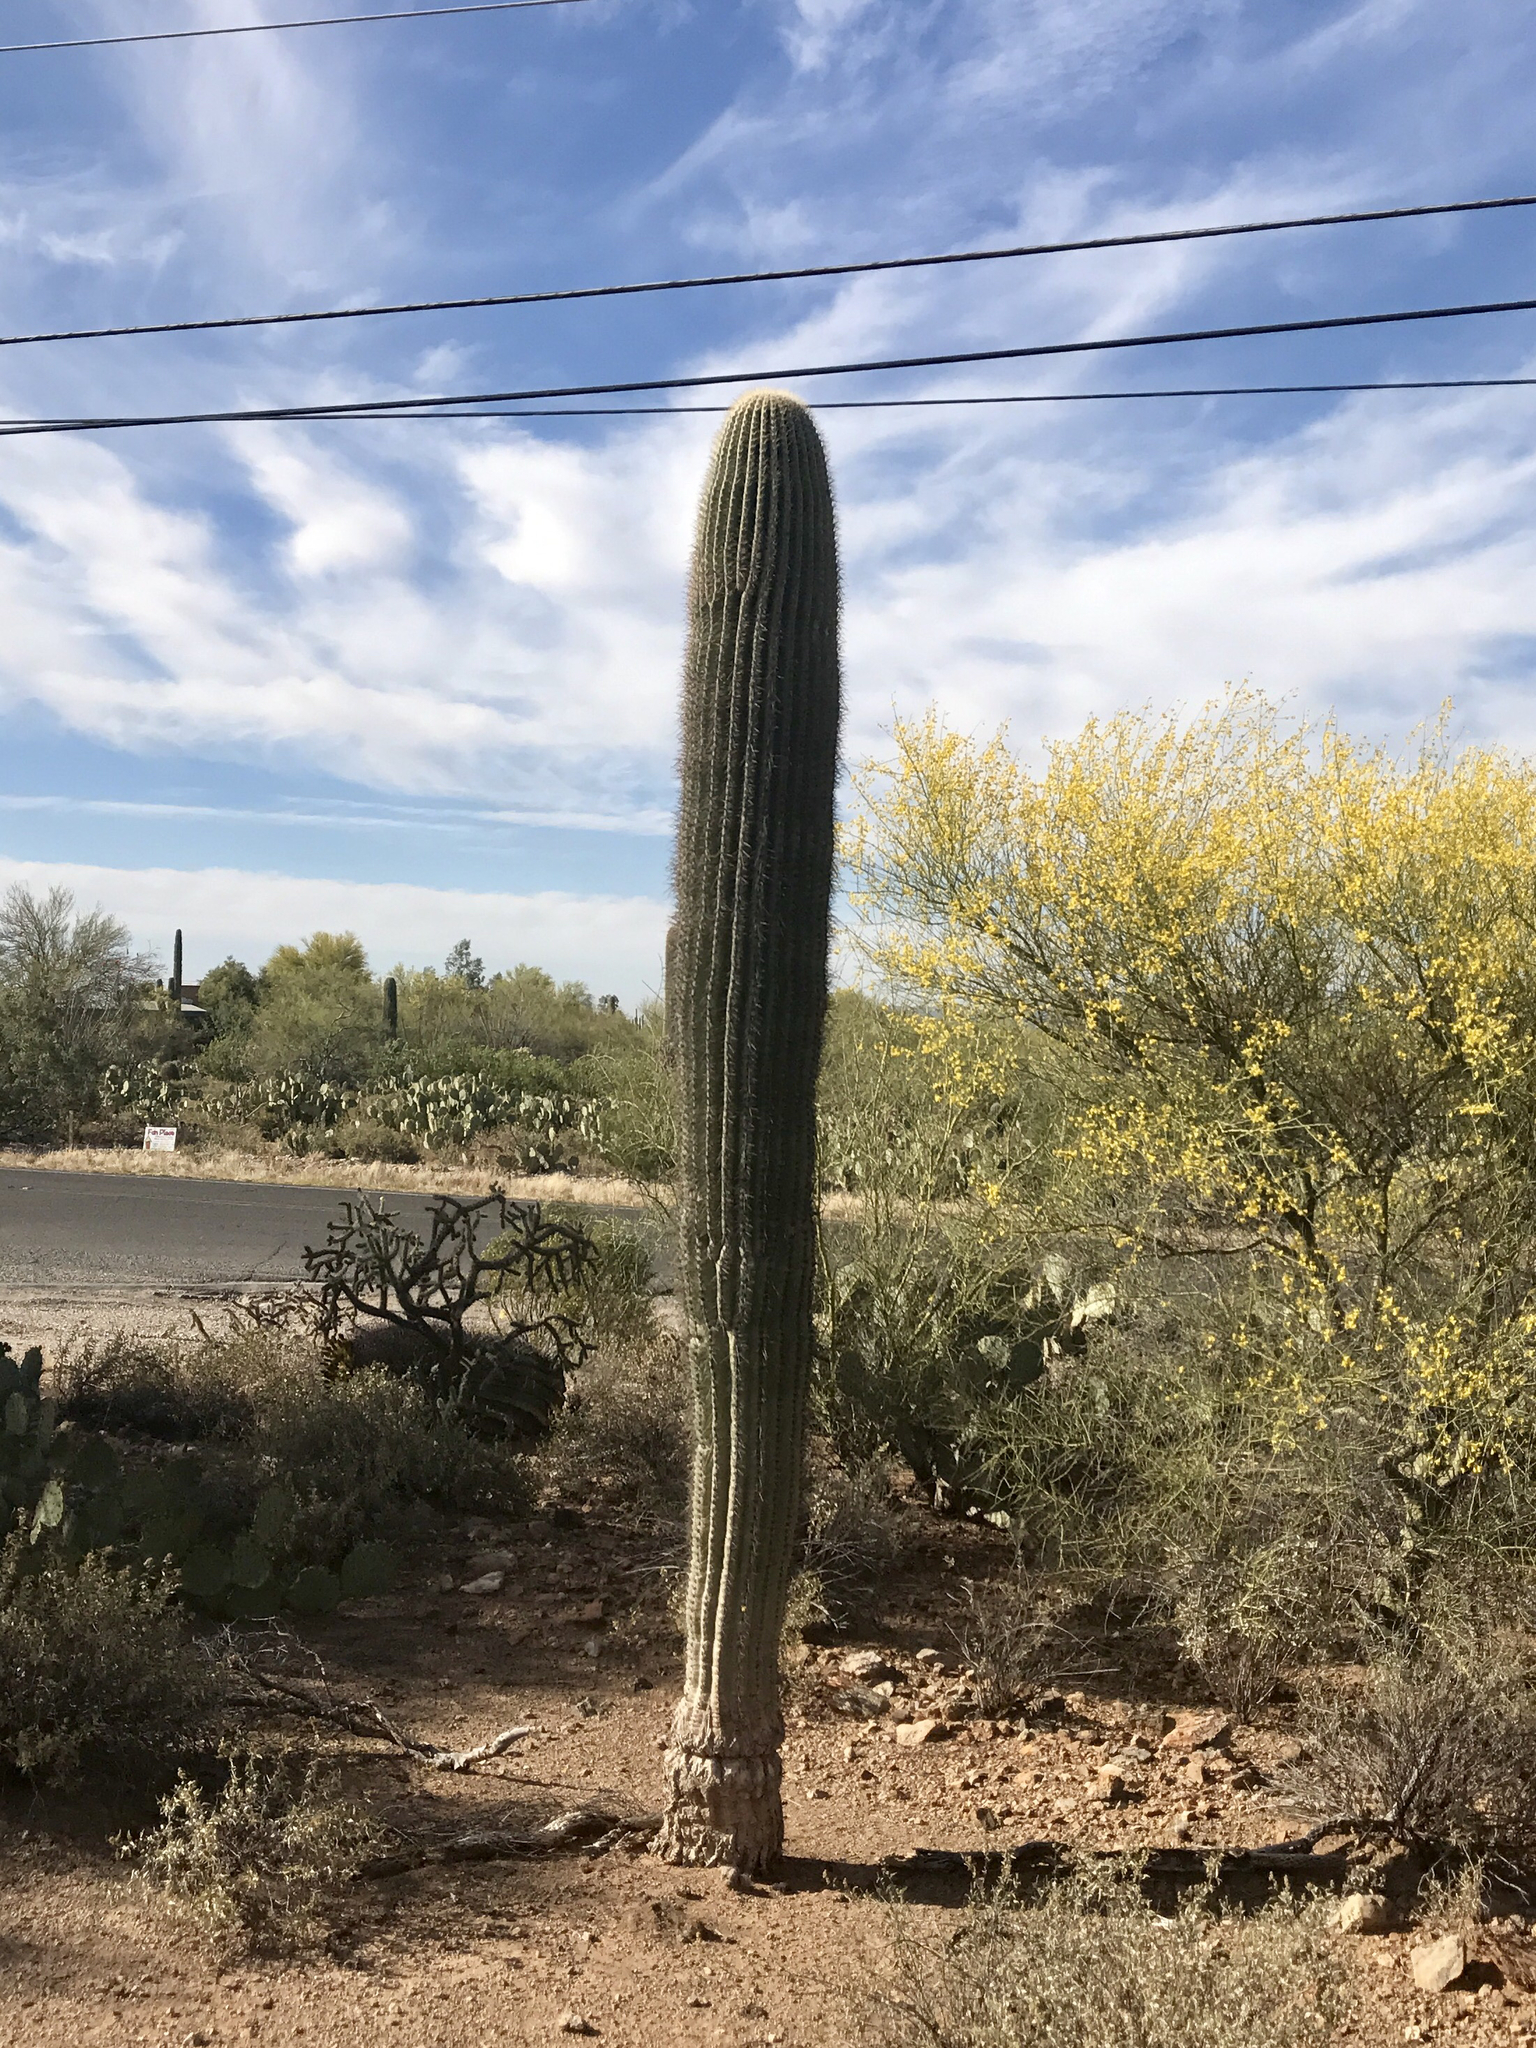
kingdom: Plantae
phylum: Tracheophyta
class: Magnoliopsida
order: Caryophyllales
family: Cactaceae
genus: Carnegiea
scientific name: Carnegiea gigantea
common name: Saguaro
